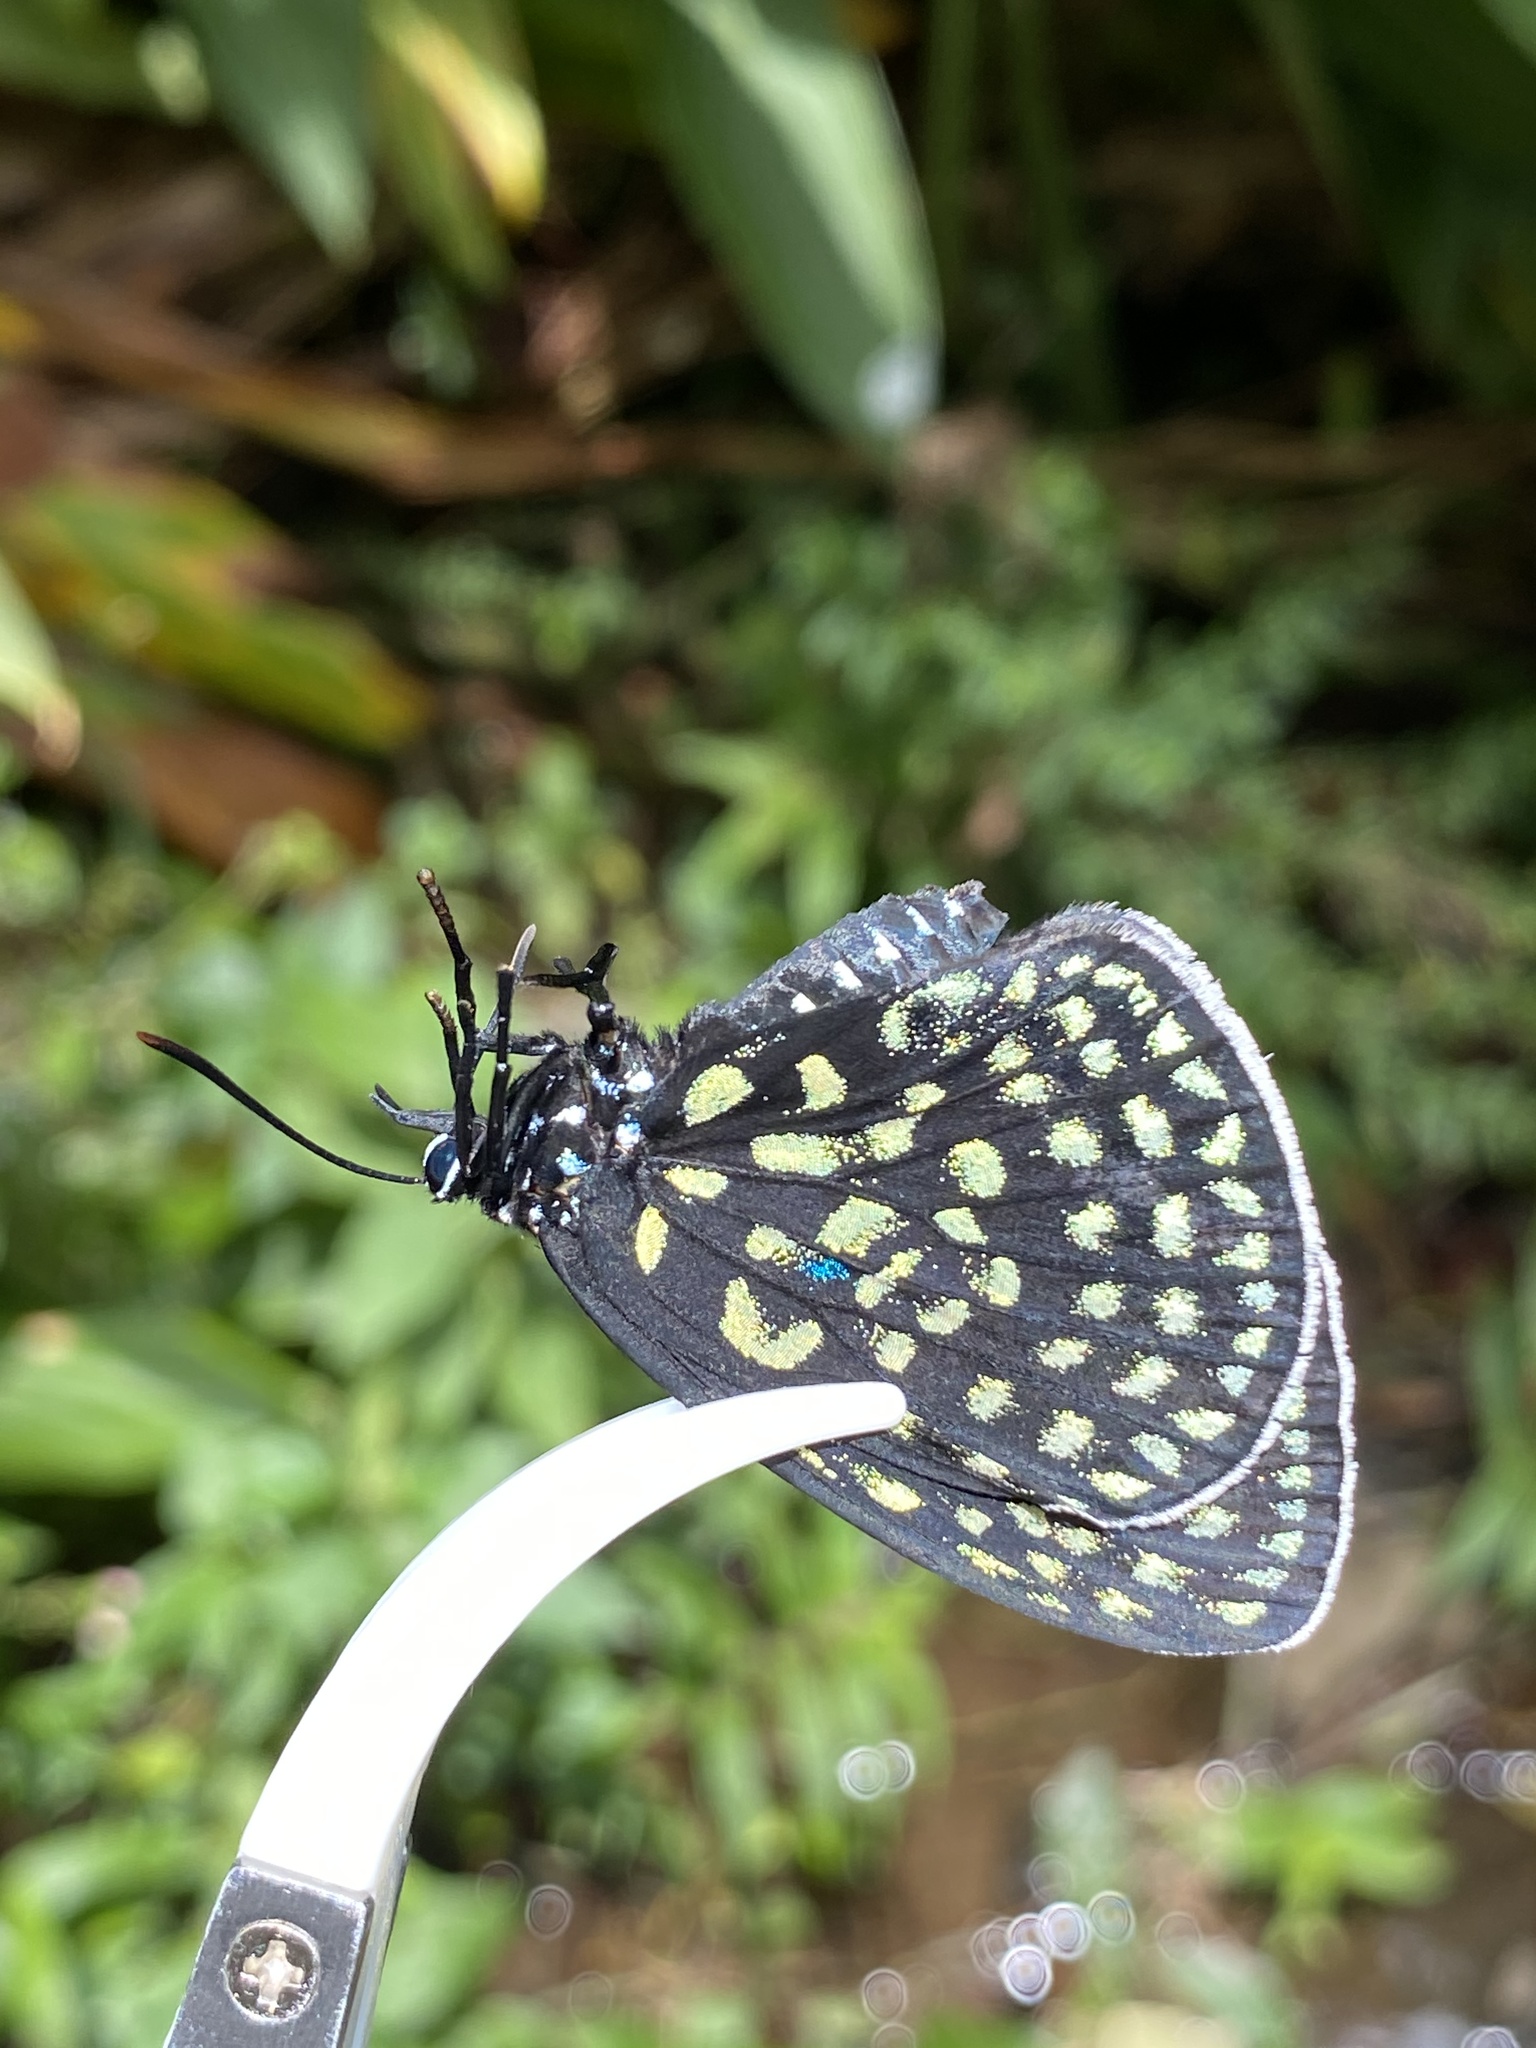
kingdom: Animalia
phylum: Arthropoda
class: Insecta
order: Lepidoptera
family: Lycaenidae
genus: Eumaeus
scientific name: Eumaeus childrenae
